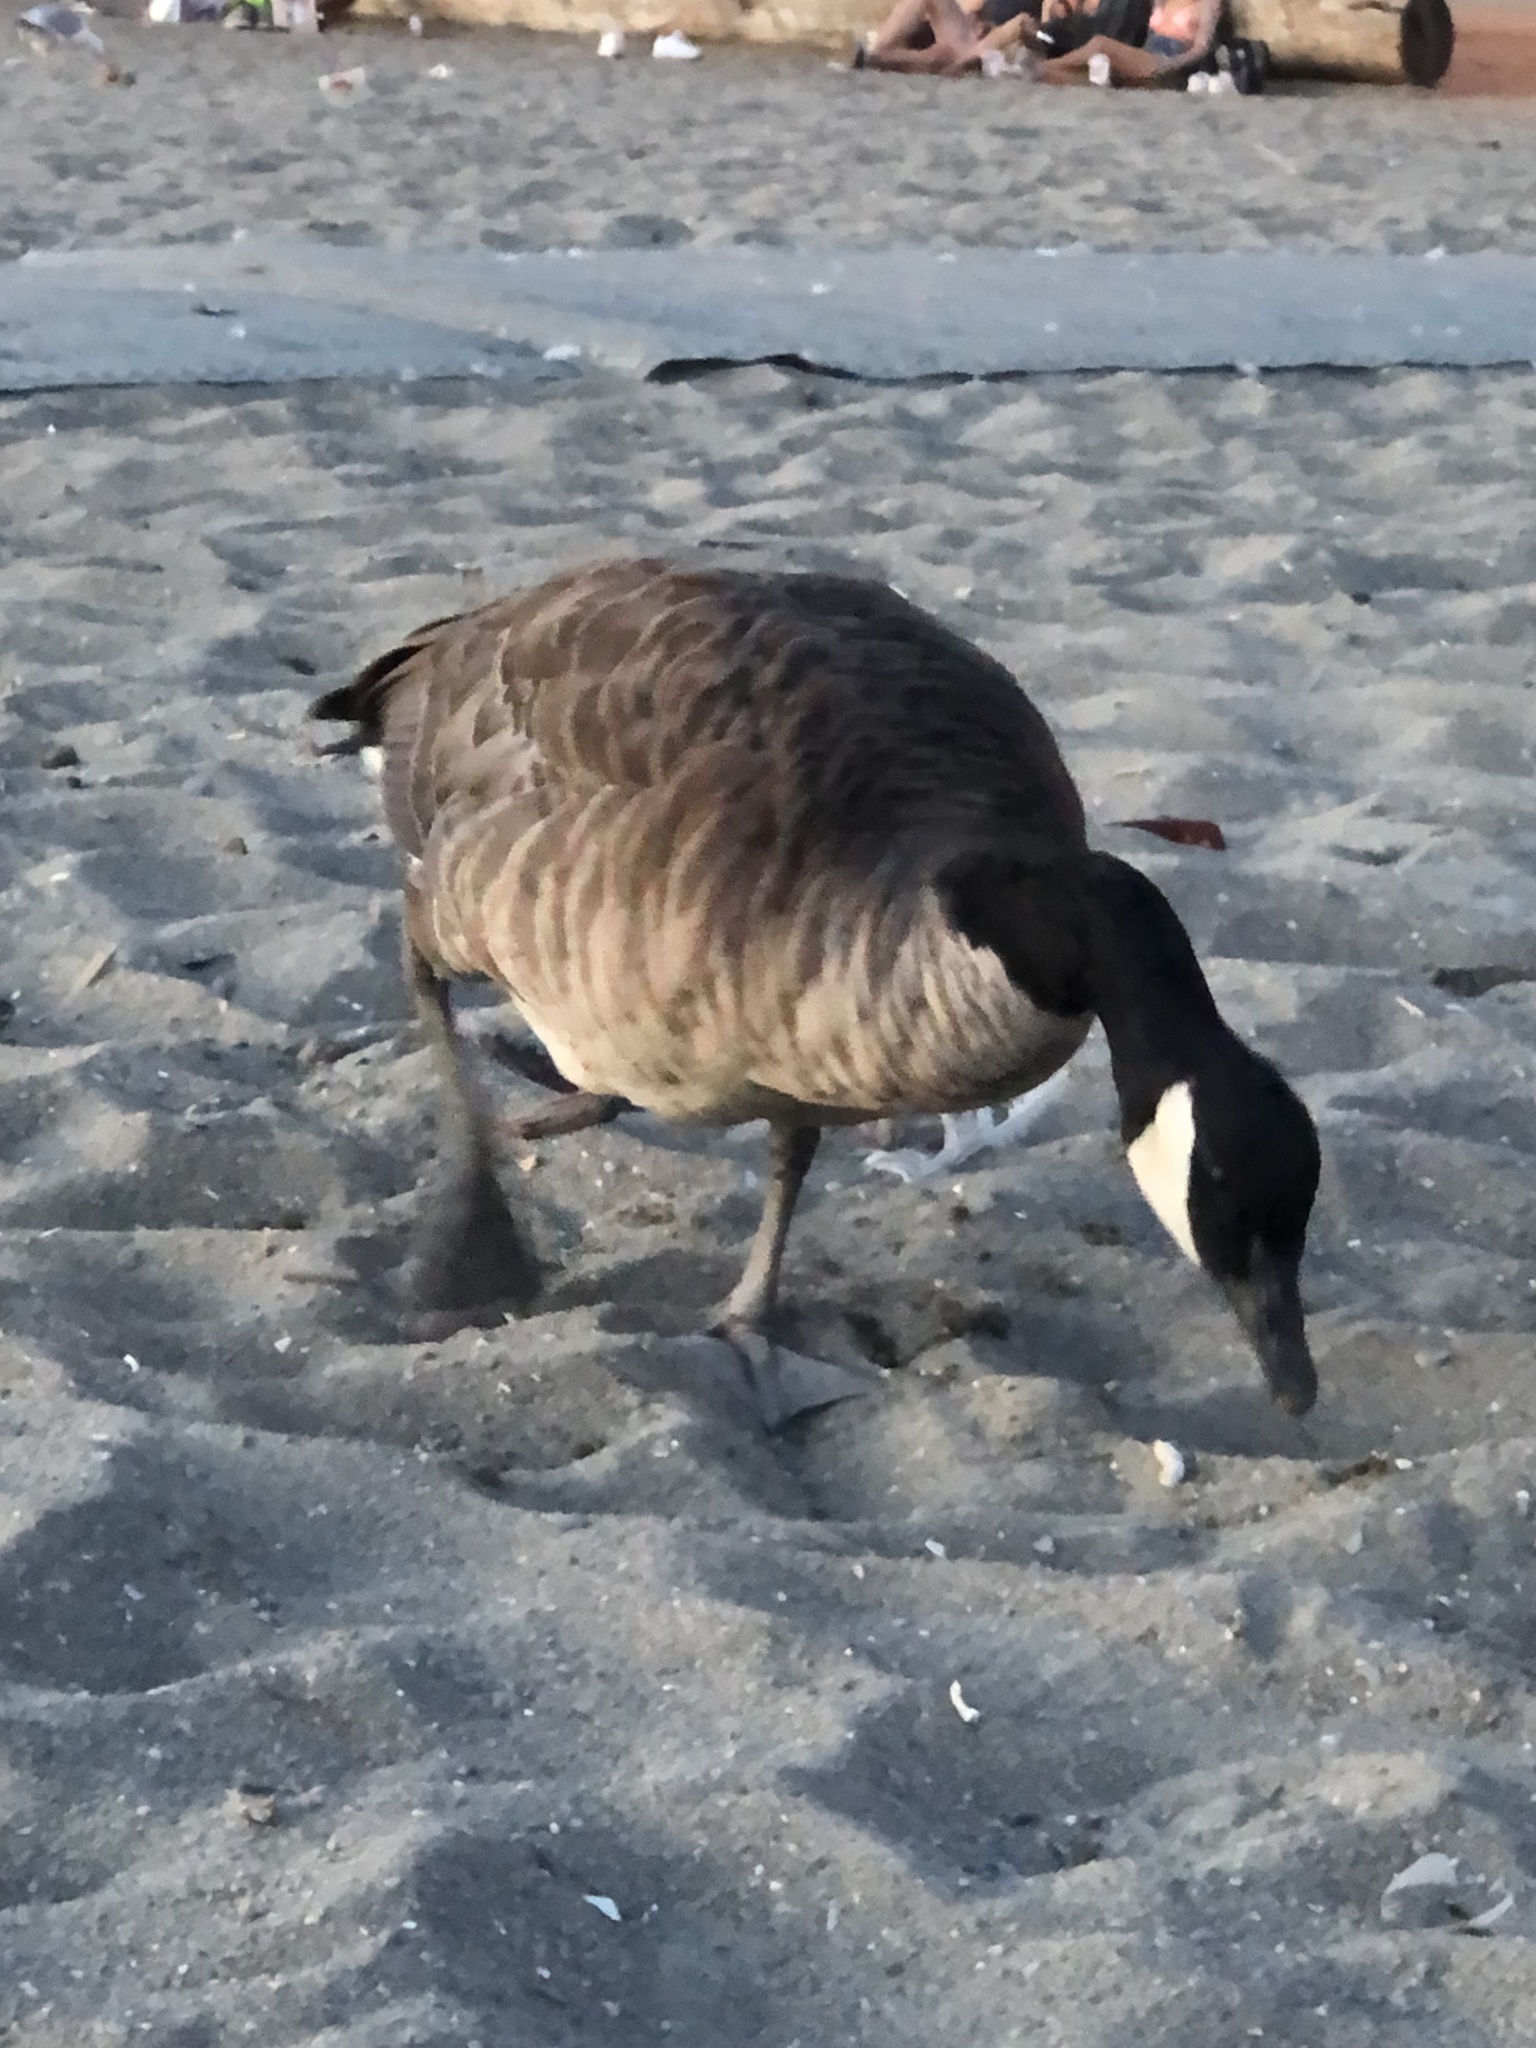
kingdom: Animalia
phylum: Chordata
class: Aves
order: Anseriformes
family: Anatidae
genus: Branta
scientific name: Branta canadensis
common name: Canada goose
